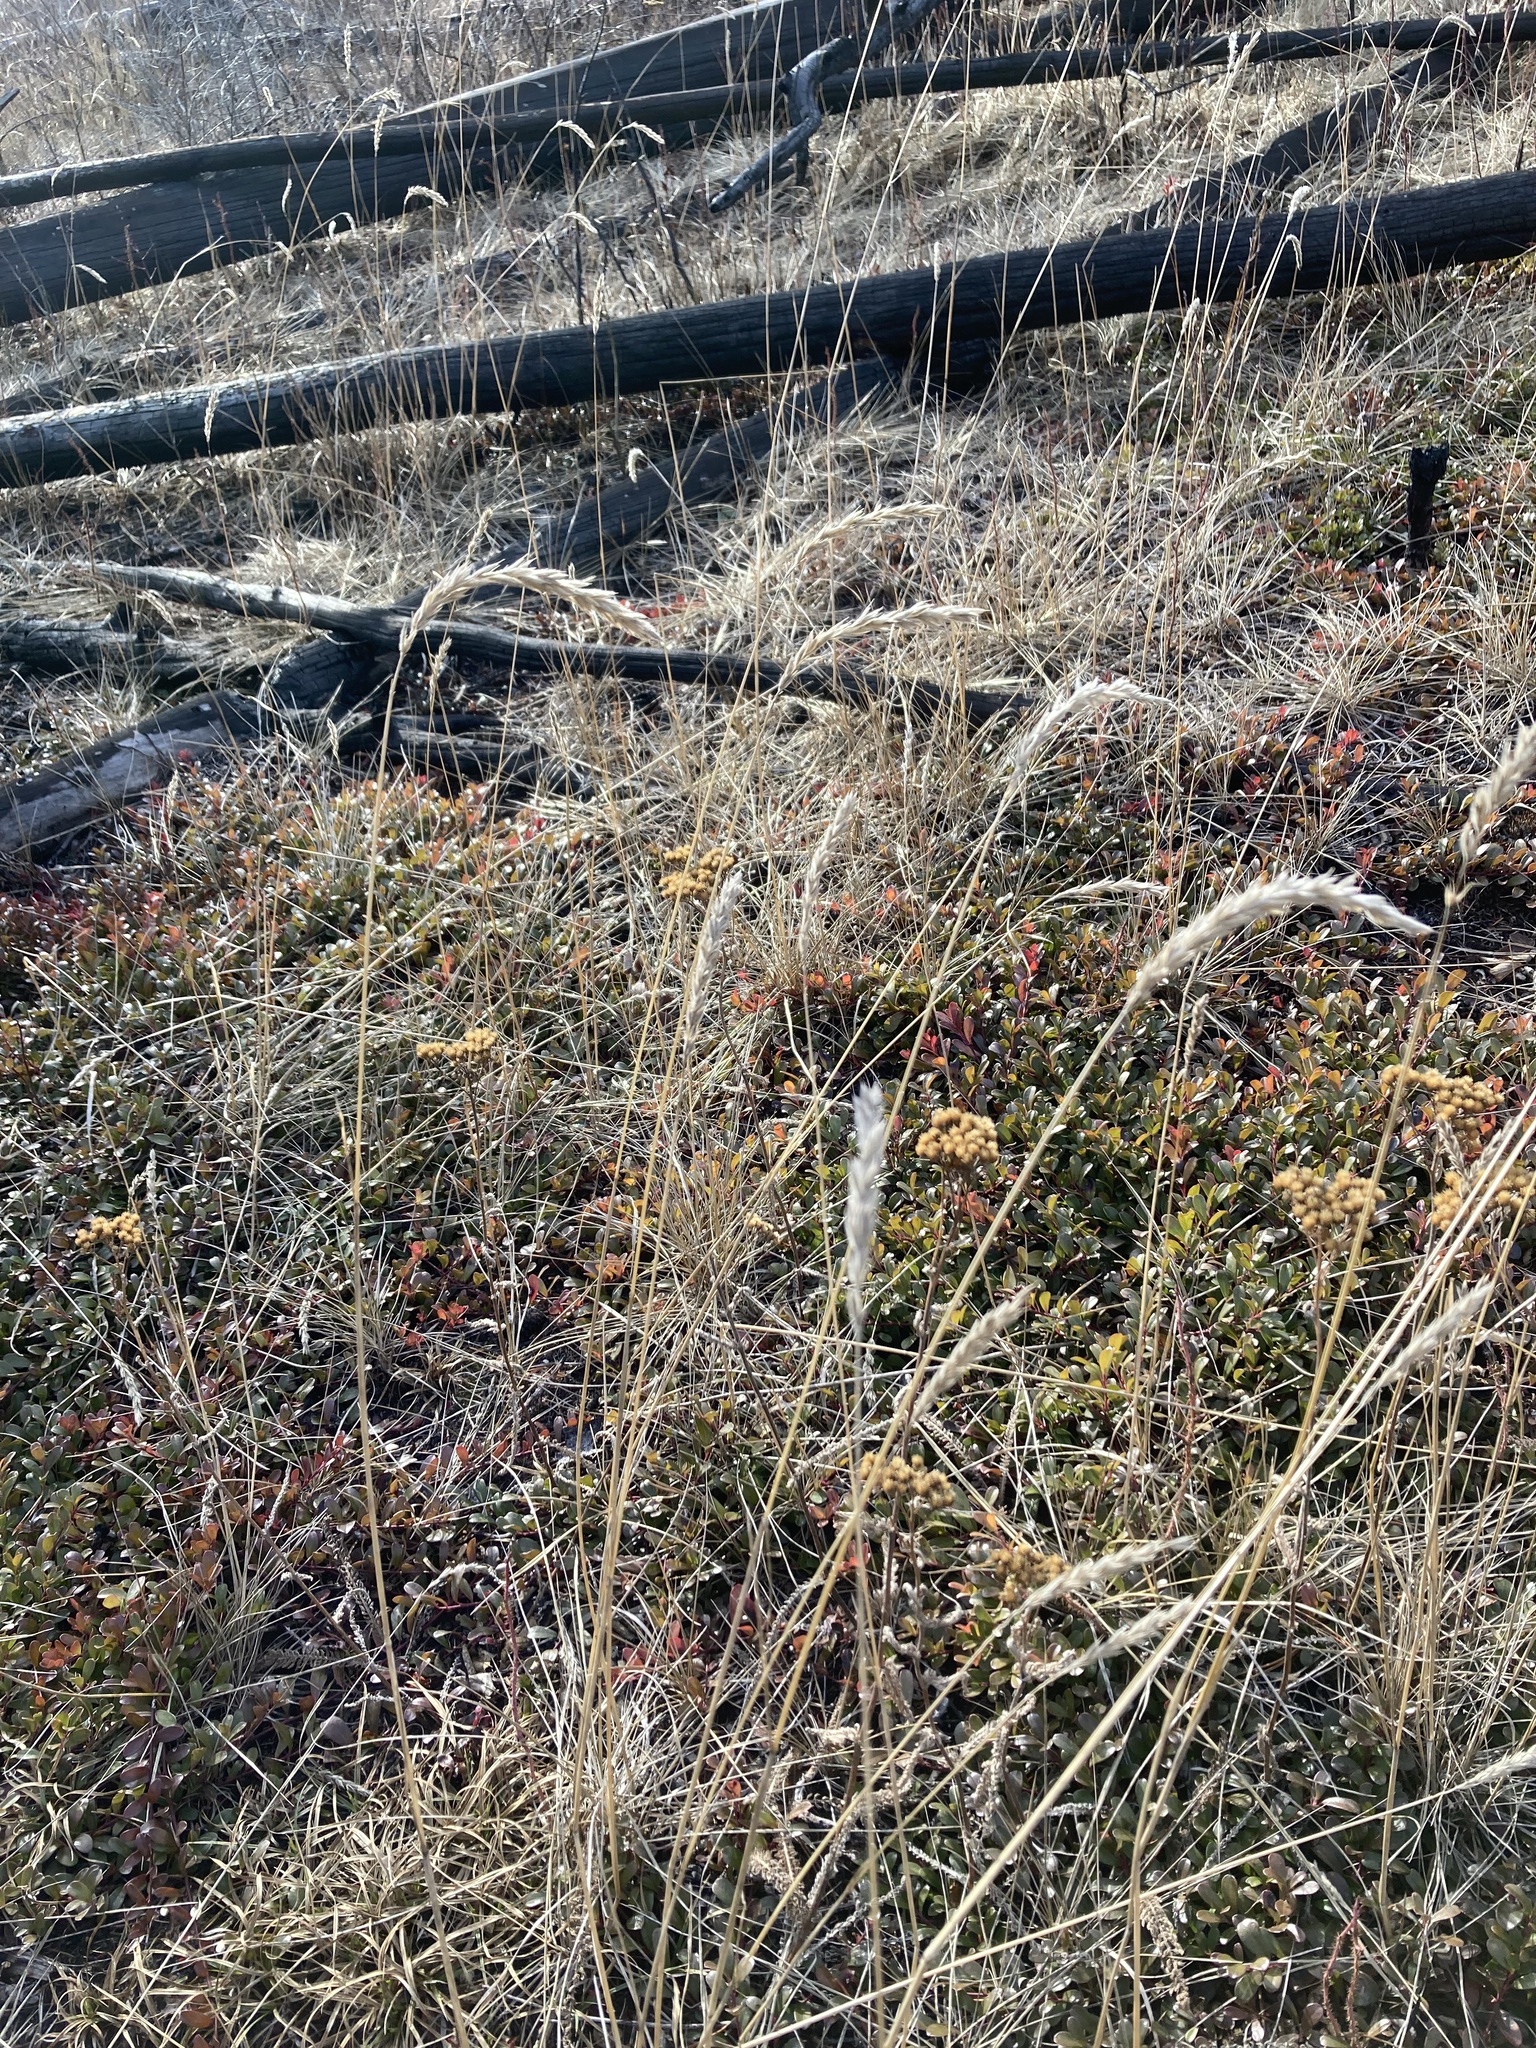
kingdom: Plantae
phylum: Tracheophyta
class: Liliopsida
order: Poales
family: Poaceae
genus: Leymus
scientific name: Leymus innovatus
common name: Boreal wild rye
